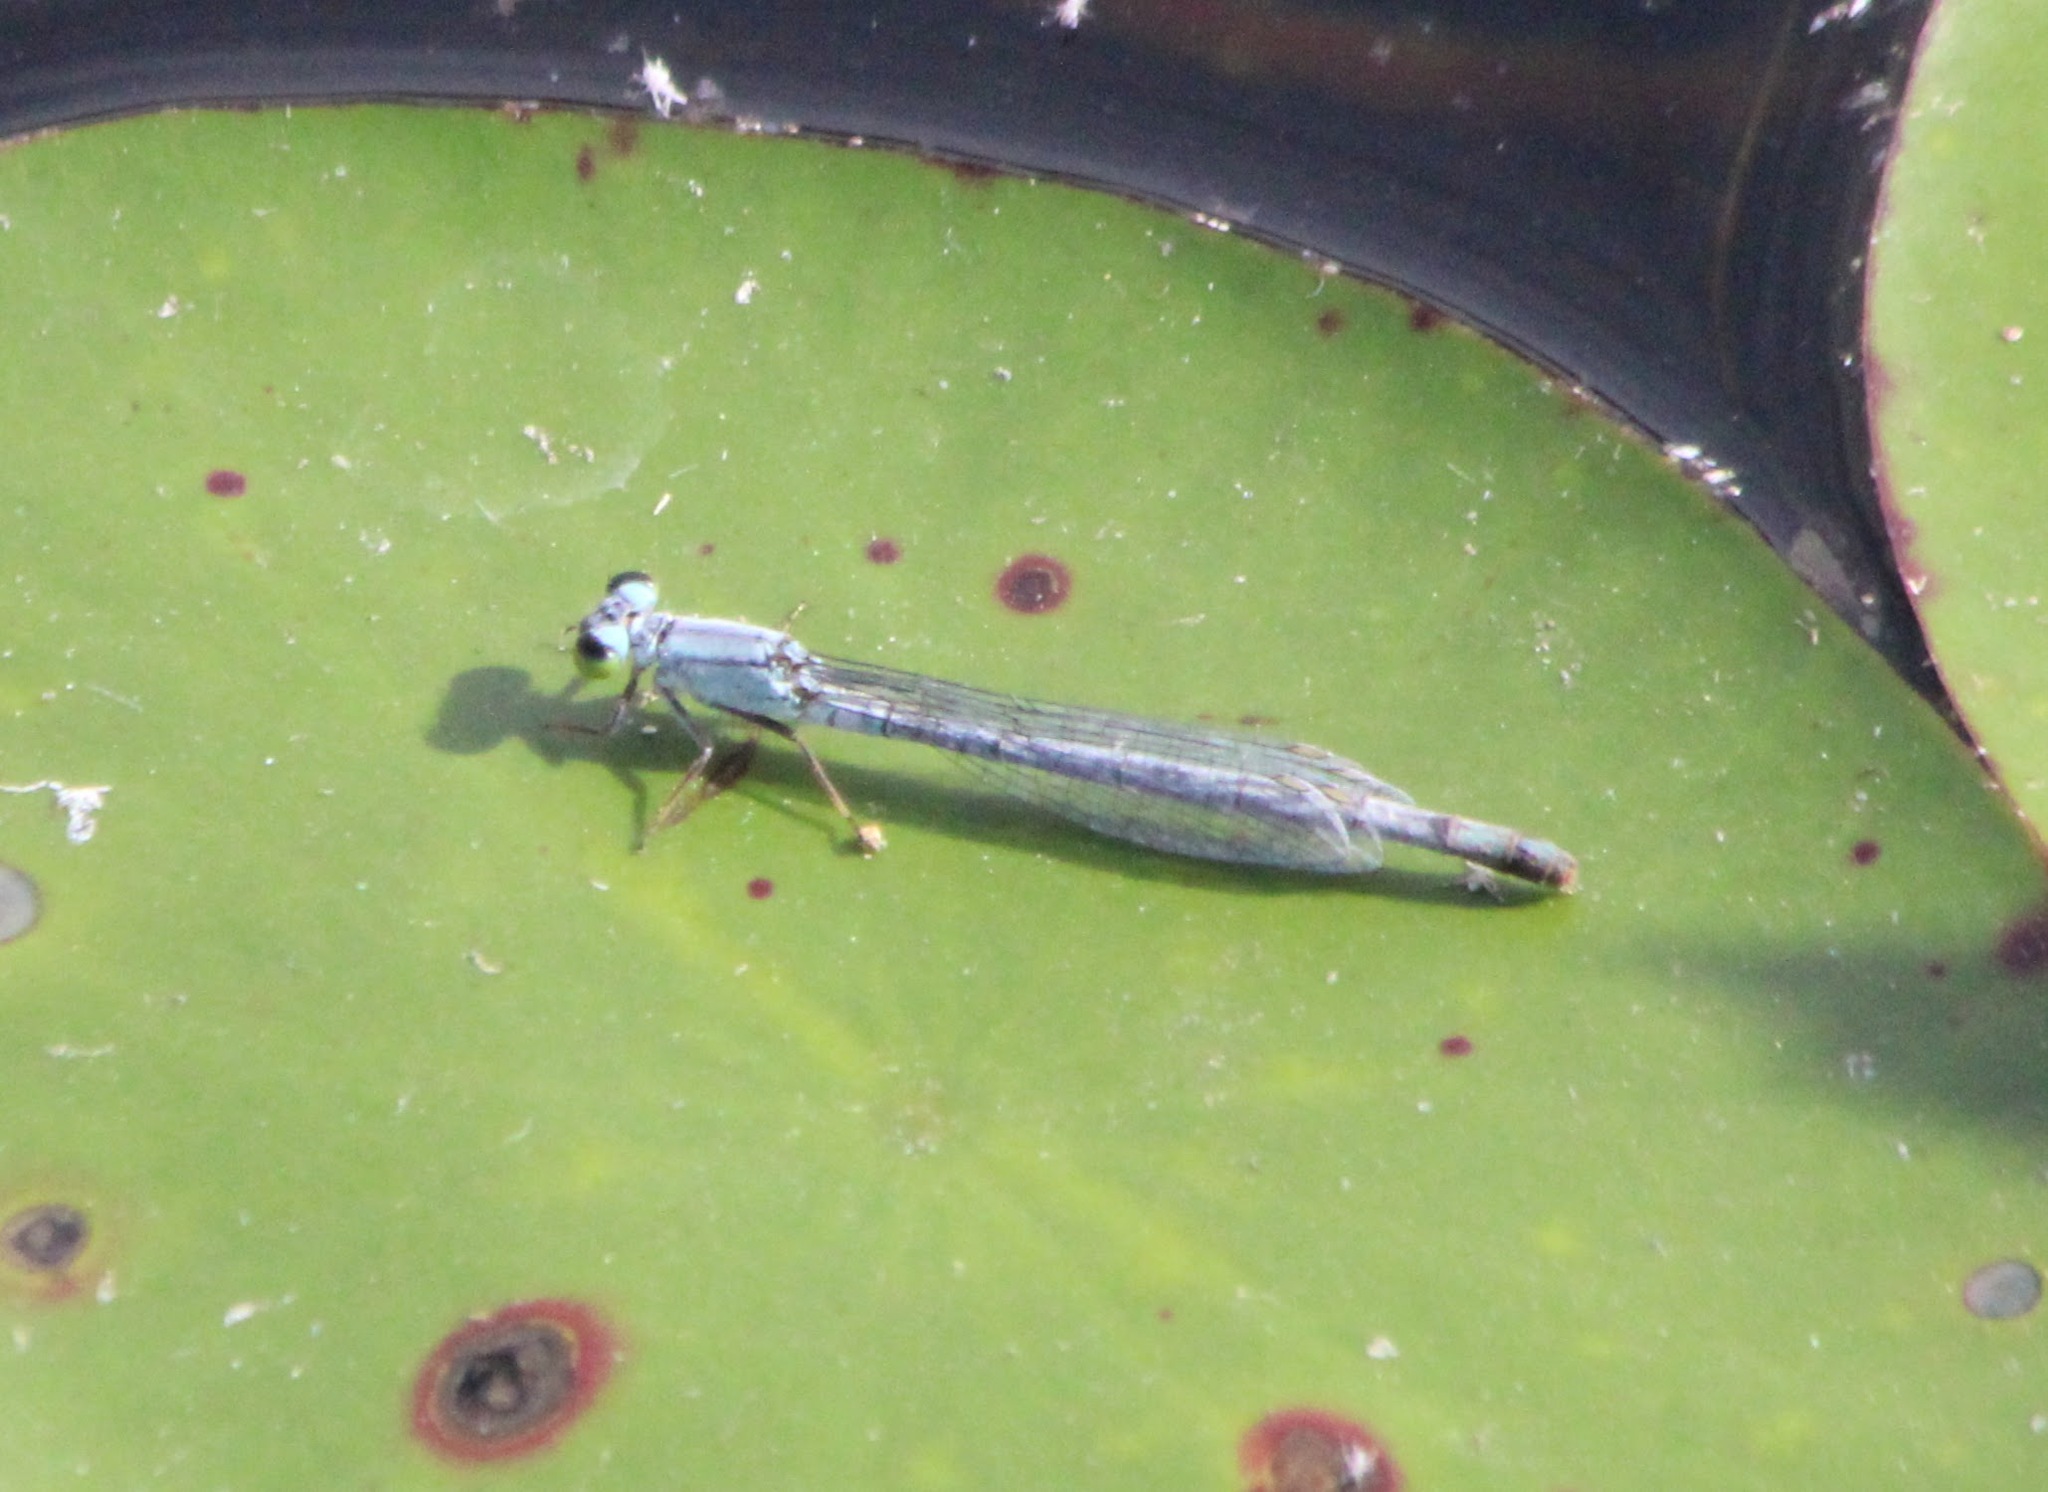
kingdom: Animalia
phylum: Arthropoda
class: Insecta
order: Odonata
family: Coenagrionidae
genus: Ischnura
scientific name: Ischnura kellicotti
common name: Lilypad forktail
